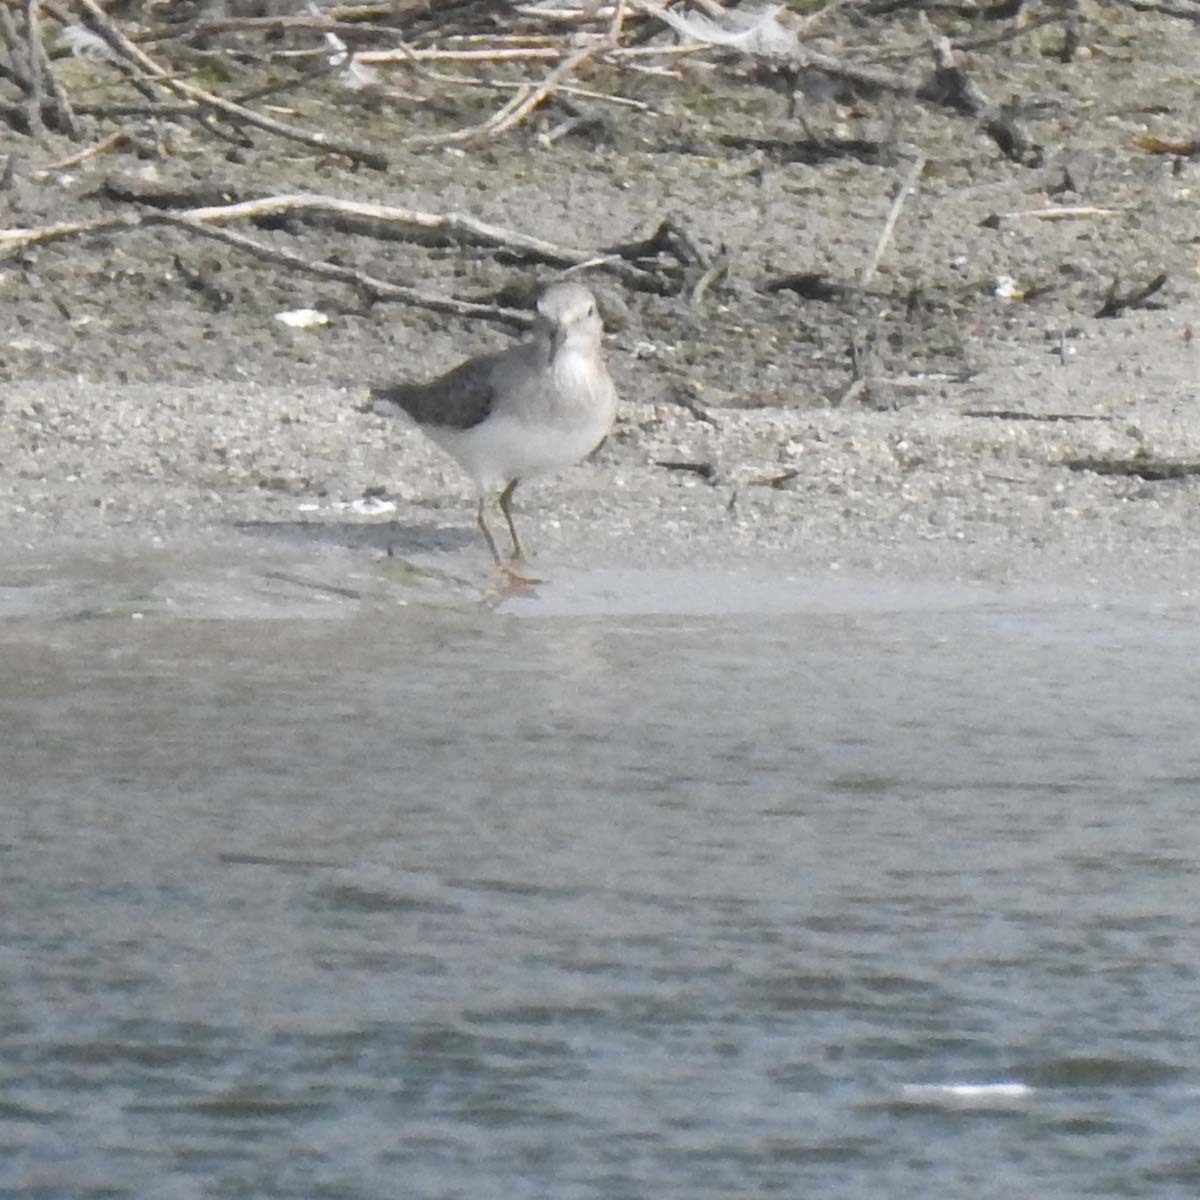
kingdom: Animalia
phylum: Chordata
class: Aves
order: Charadriiformes
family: Scolopacidae
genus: Calidris
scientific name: Calidris temminckii
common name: Temminck's stint
